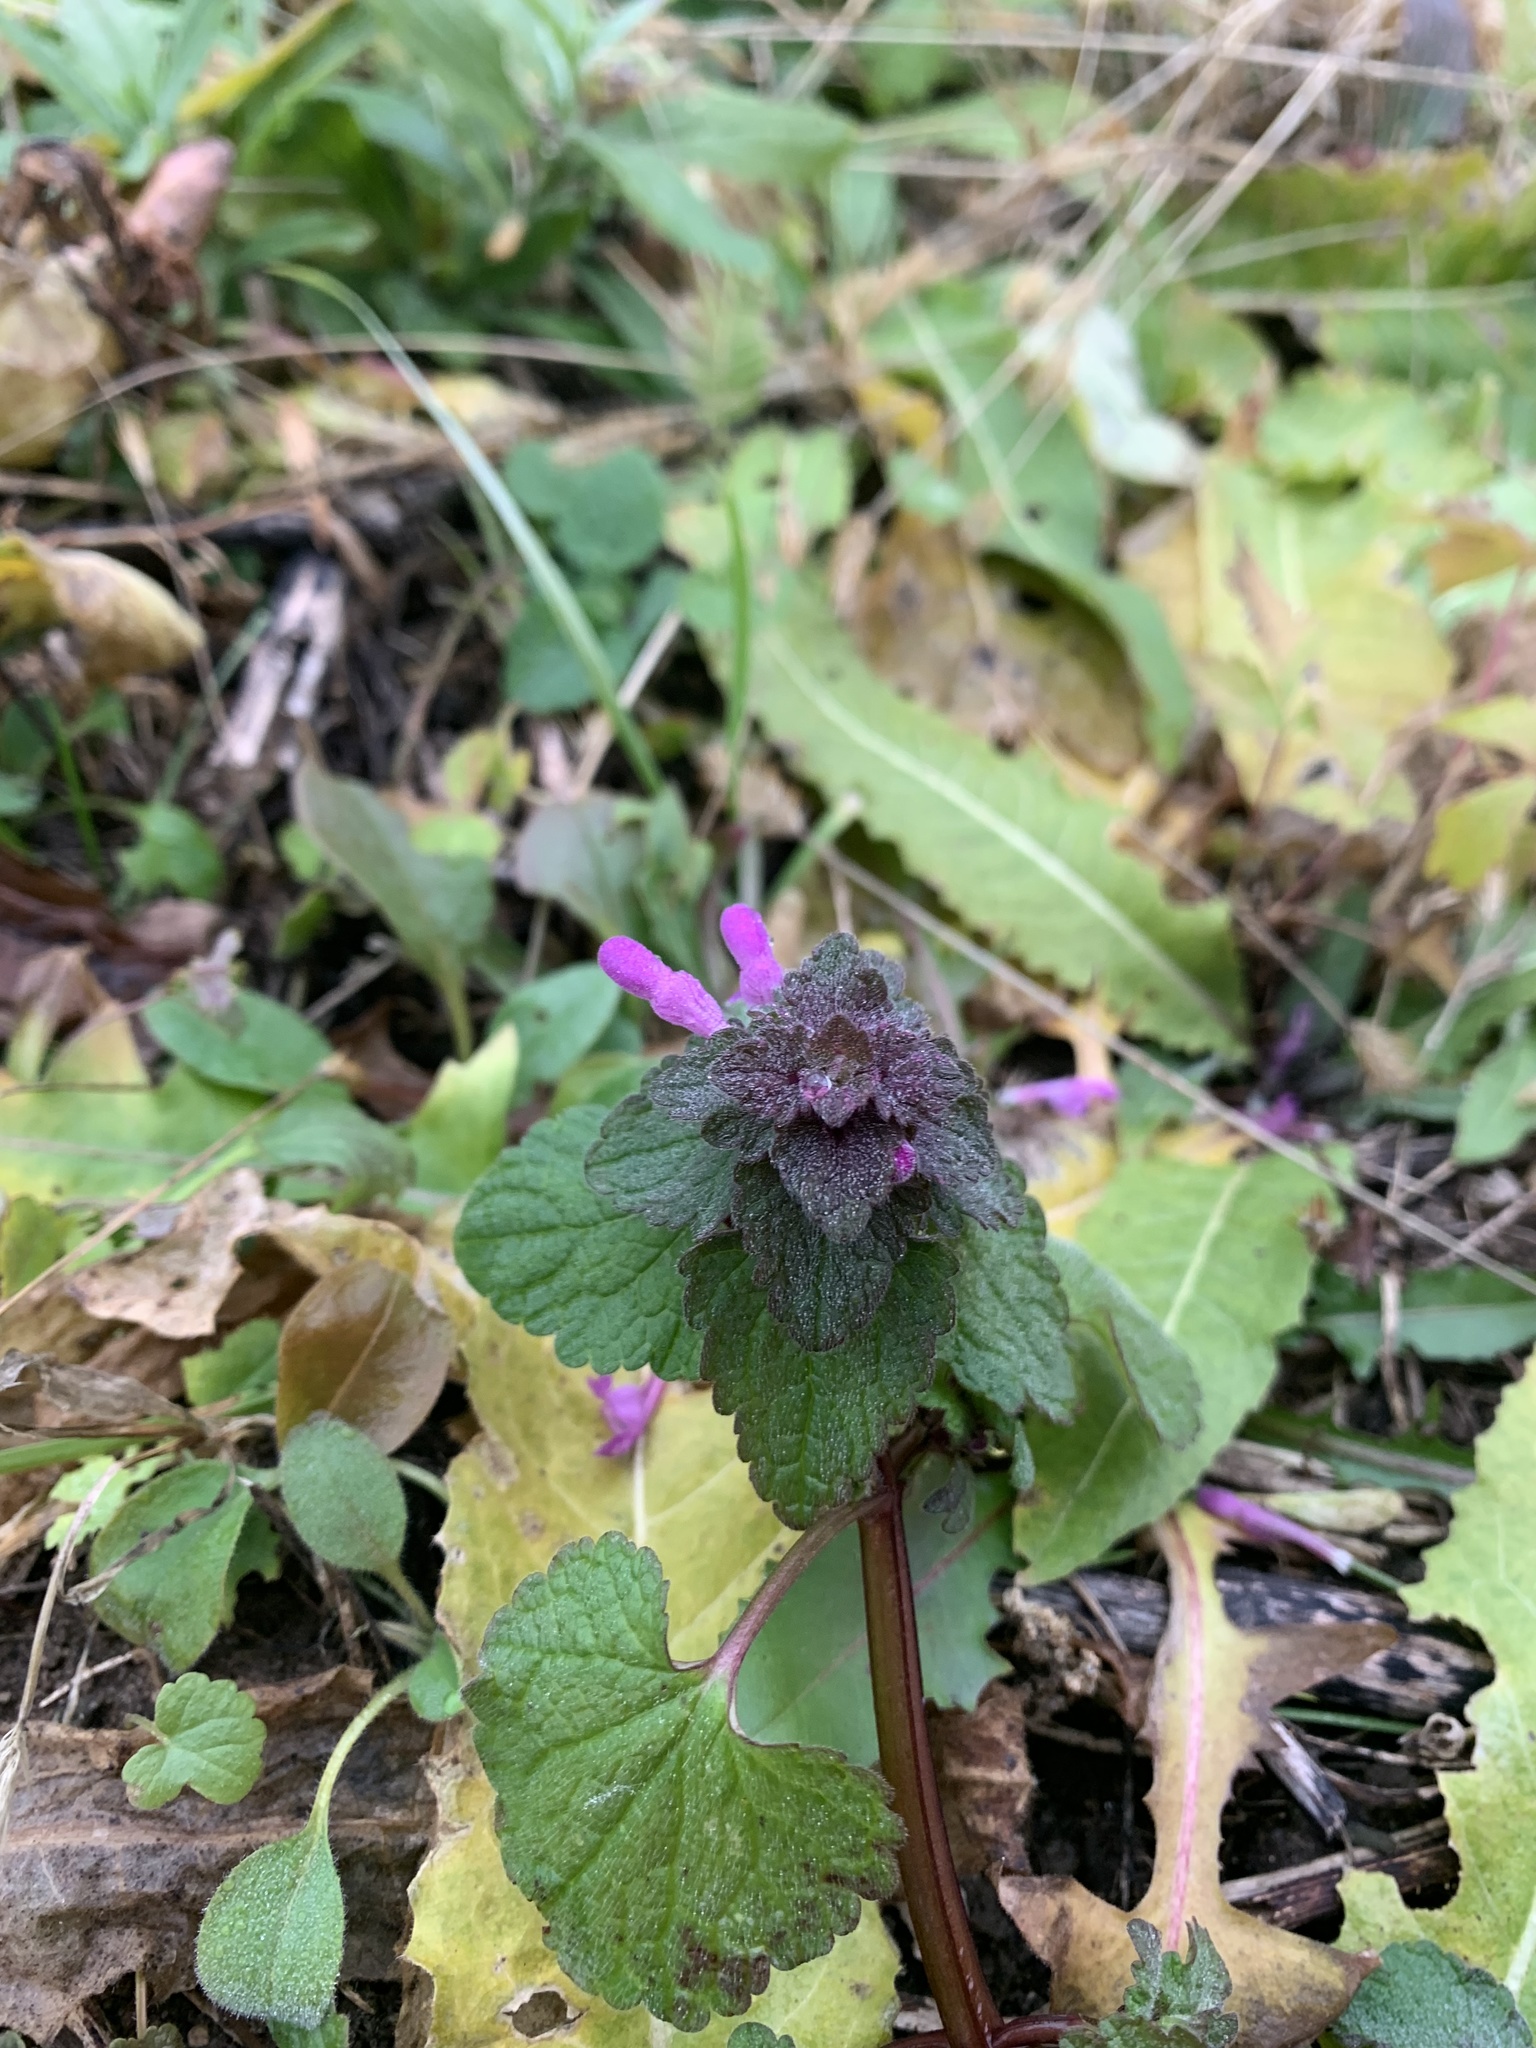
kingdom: Plantae
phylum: Tracheophyta
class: Magnoliopsida
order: Lamiales
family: Lamiaceae
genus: Lamium
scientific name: Lamium purpureum
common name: Red dead-nettle
